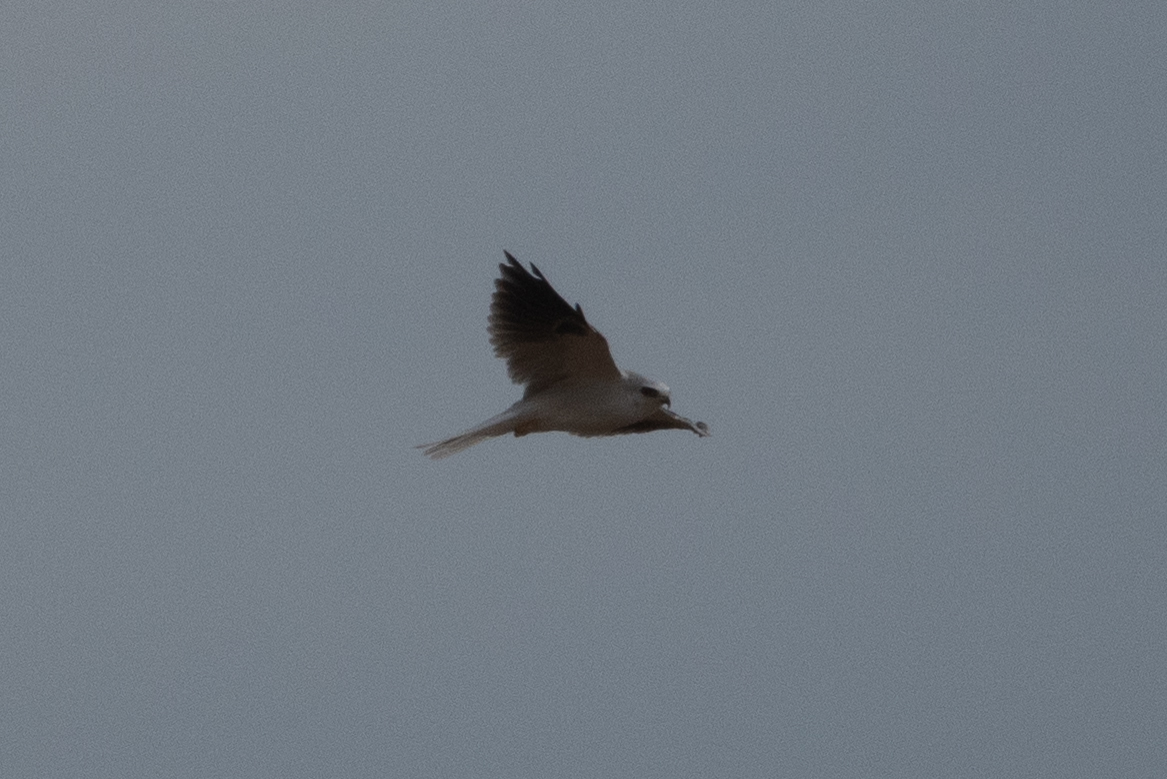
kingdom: Animalia
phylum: Chordata
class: Aves
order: Accipitriformes
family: Accipitridae
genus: Elanus
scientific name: Elanus leucurus
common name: White-tailed kite
